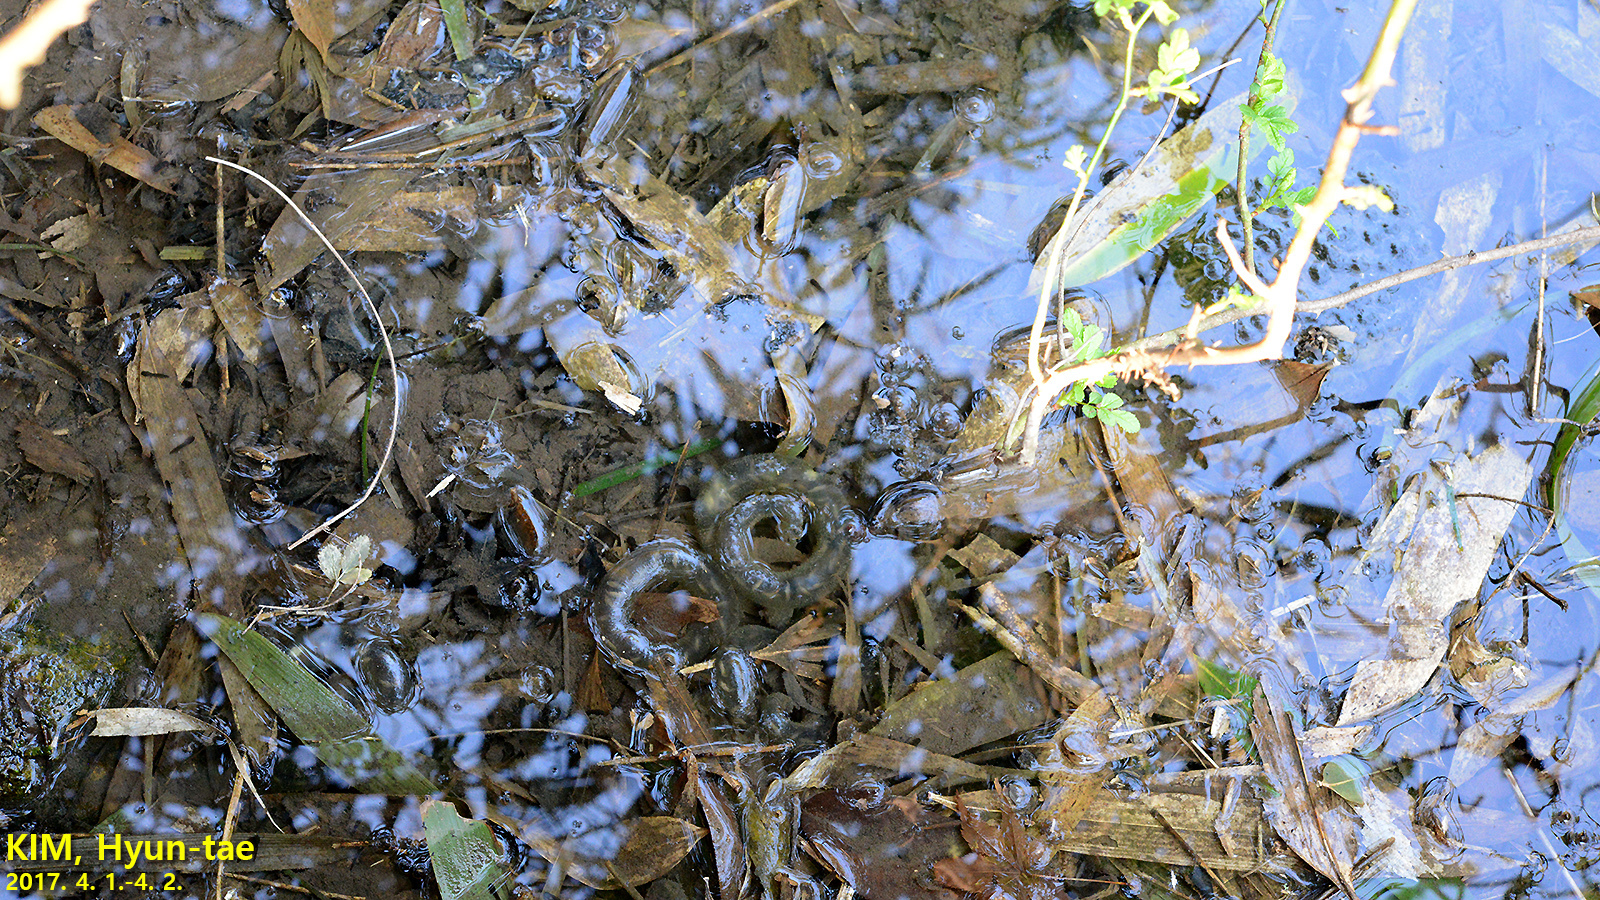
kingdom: Animalia
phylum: Chordata
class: Amphibia
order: Caudata
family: Hynobiidae
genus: Hynobius
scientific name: Hynobius quelpaertensis
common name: Cheju salamander
